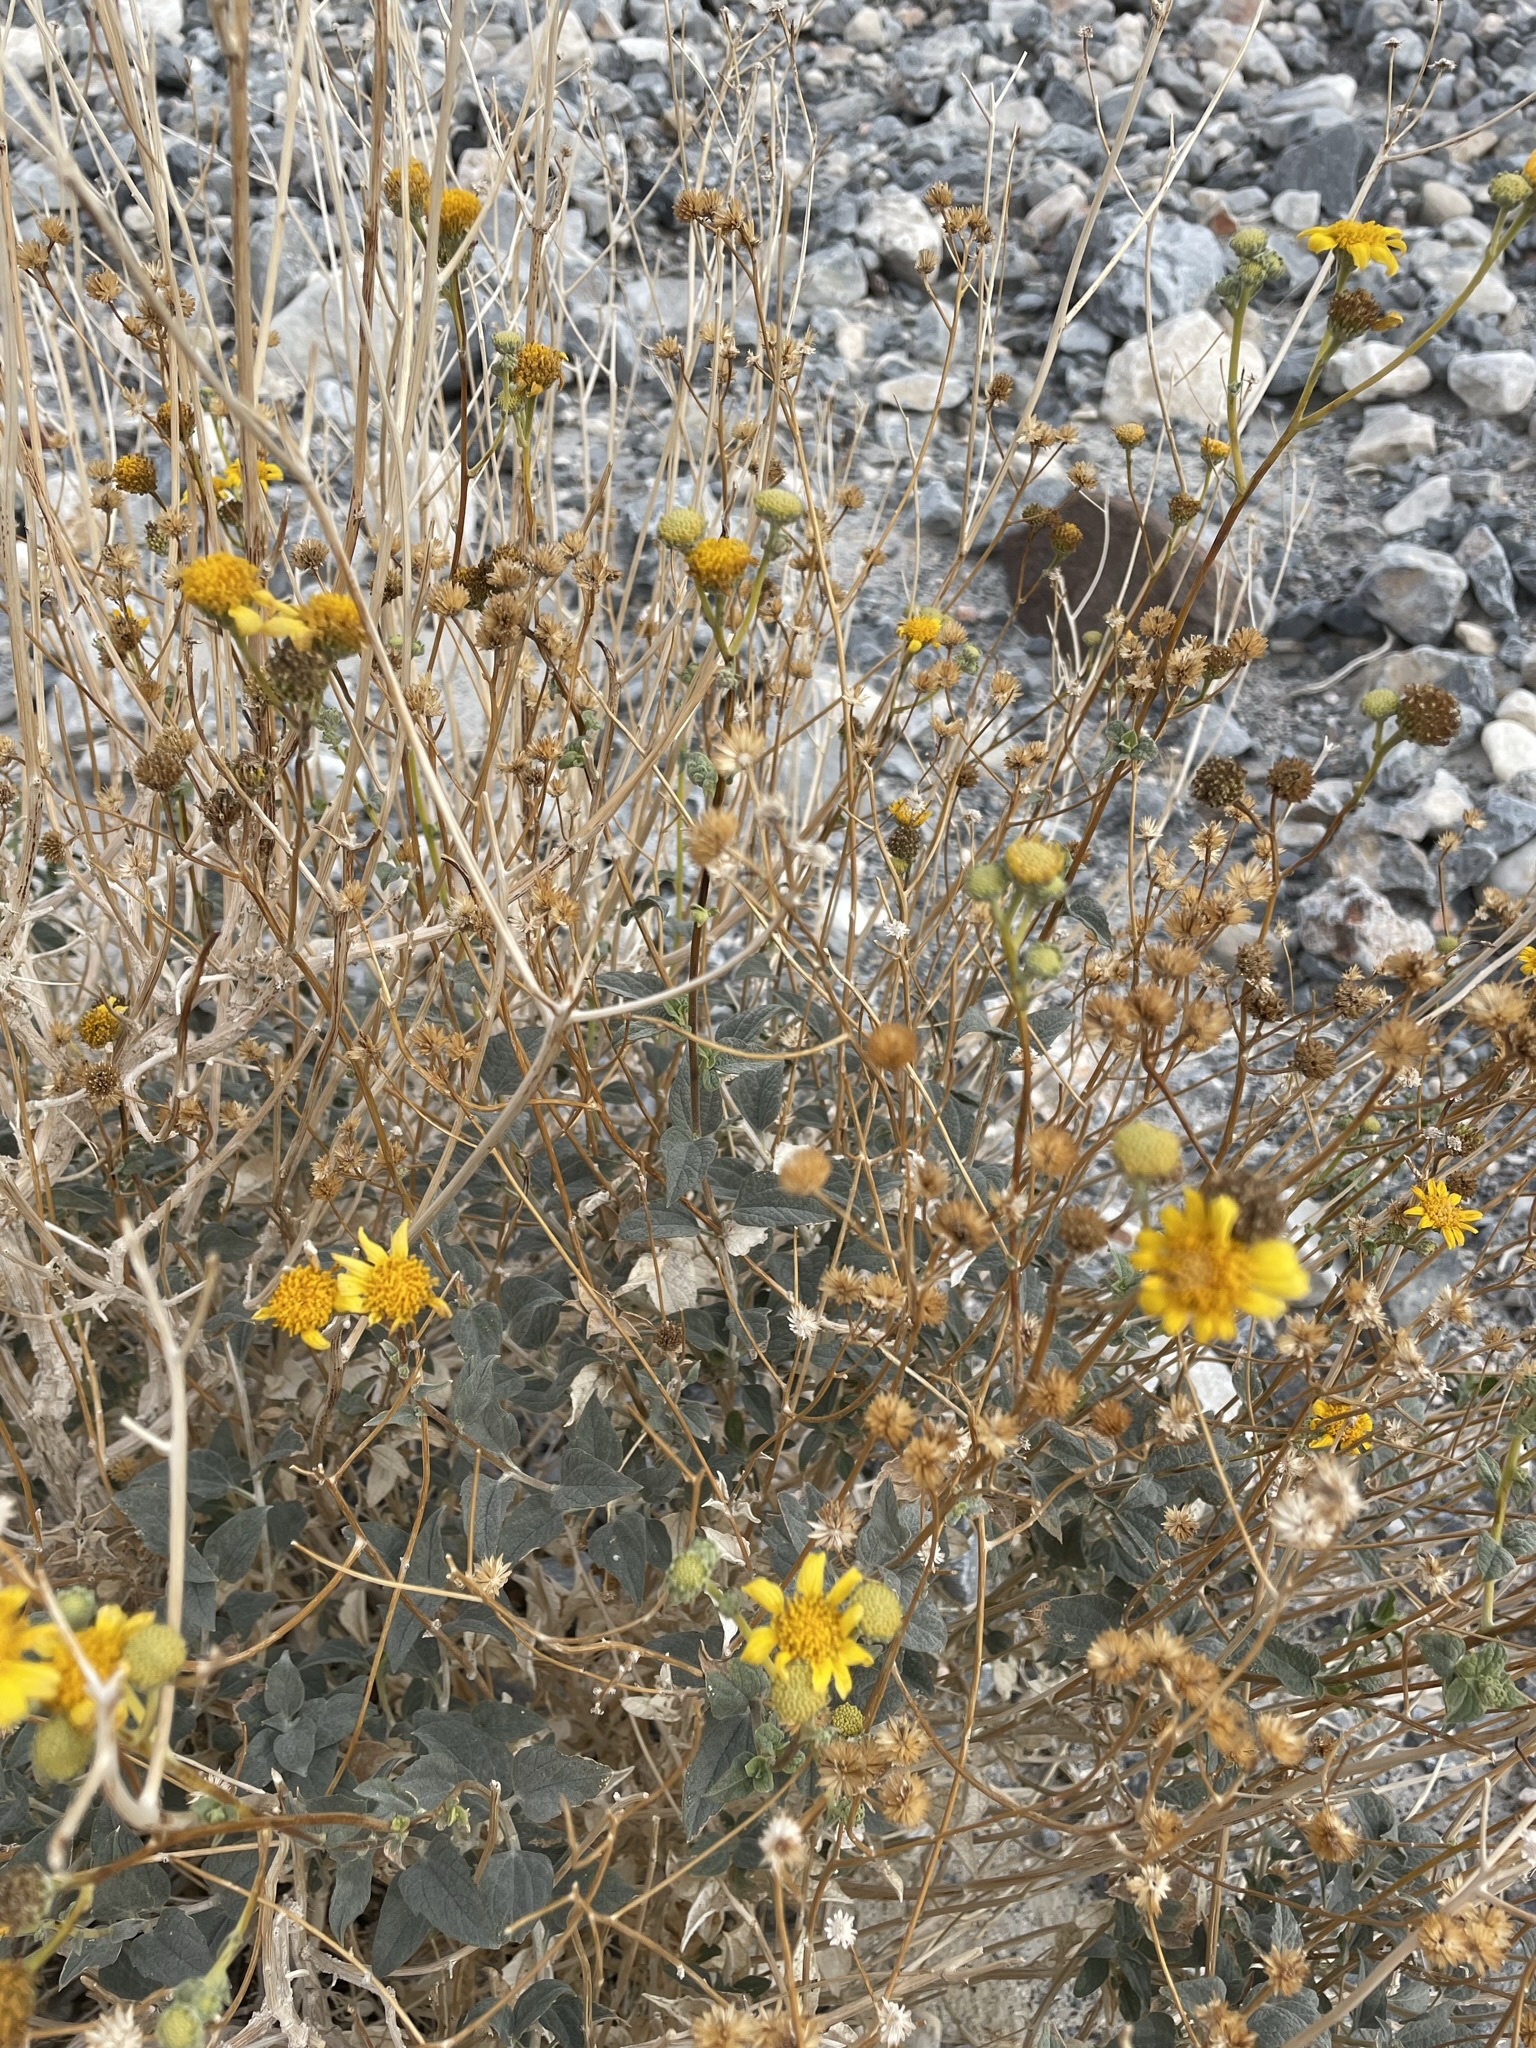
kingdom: Plantae
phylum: Tracheophyta
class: Magnoliopsida
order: Asterales
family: Asteraceae
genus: Bahiopsis
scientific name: Bahiopsis reticulata
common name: Death valley goldeneye
